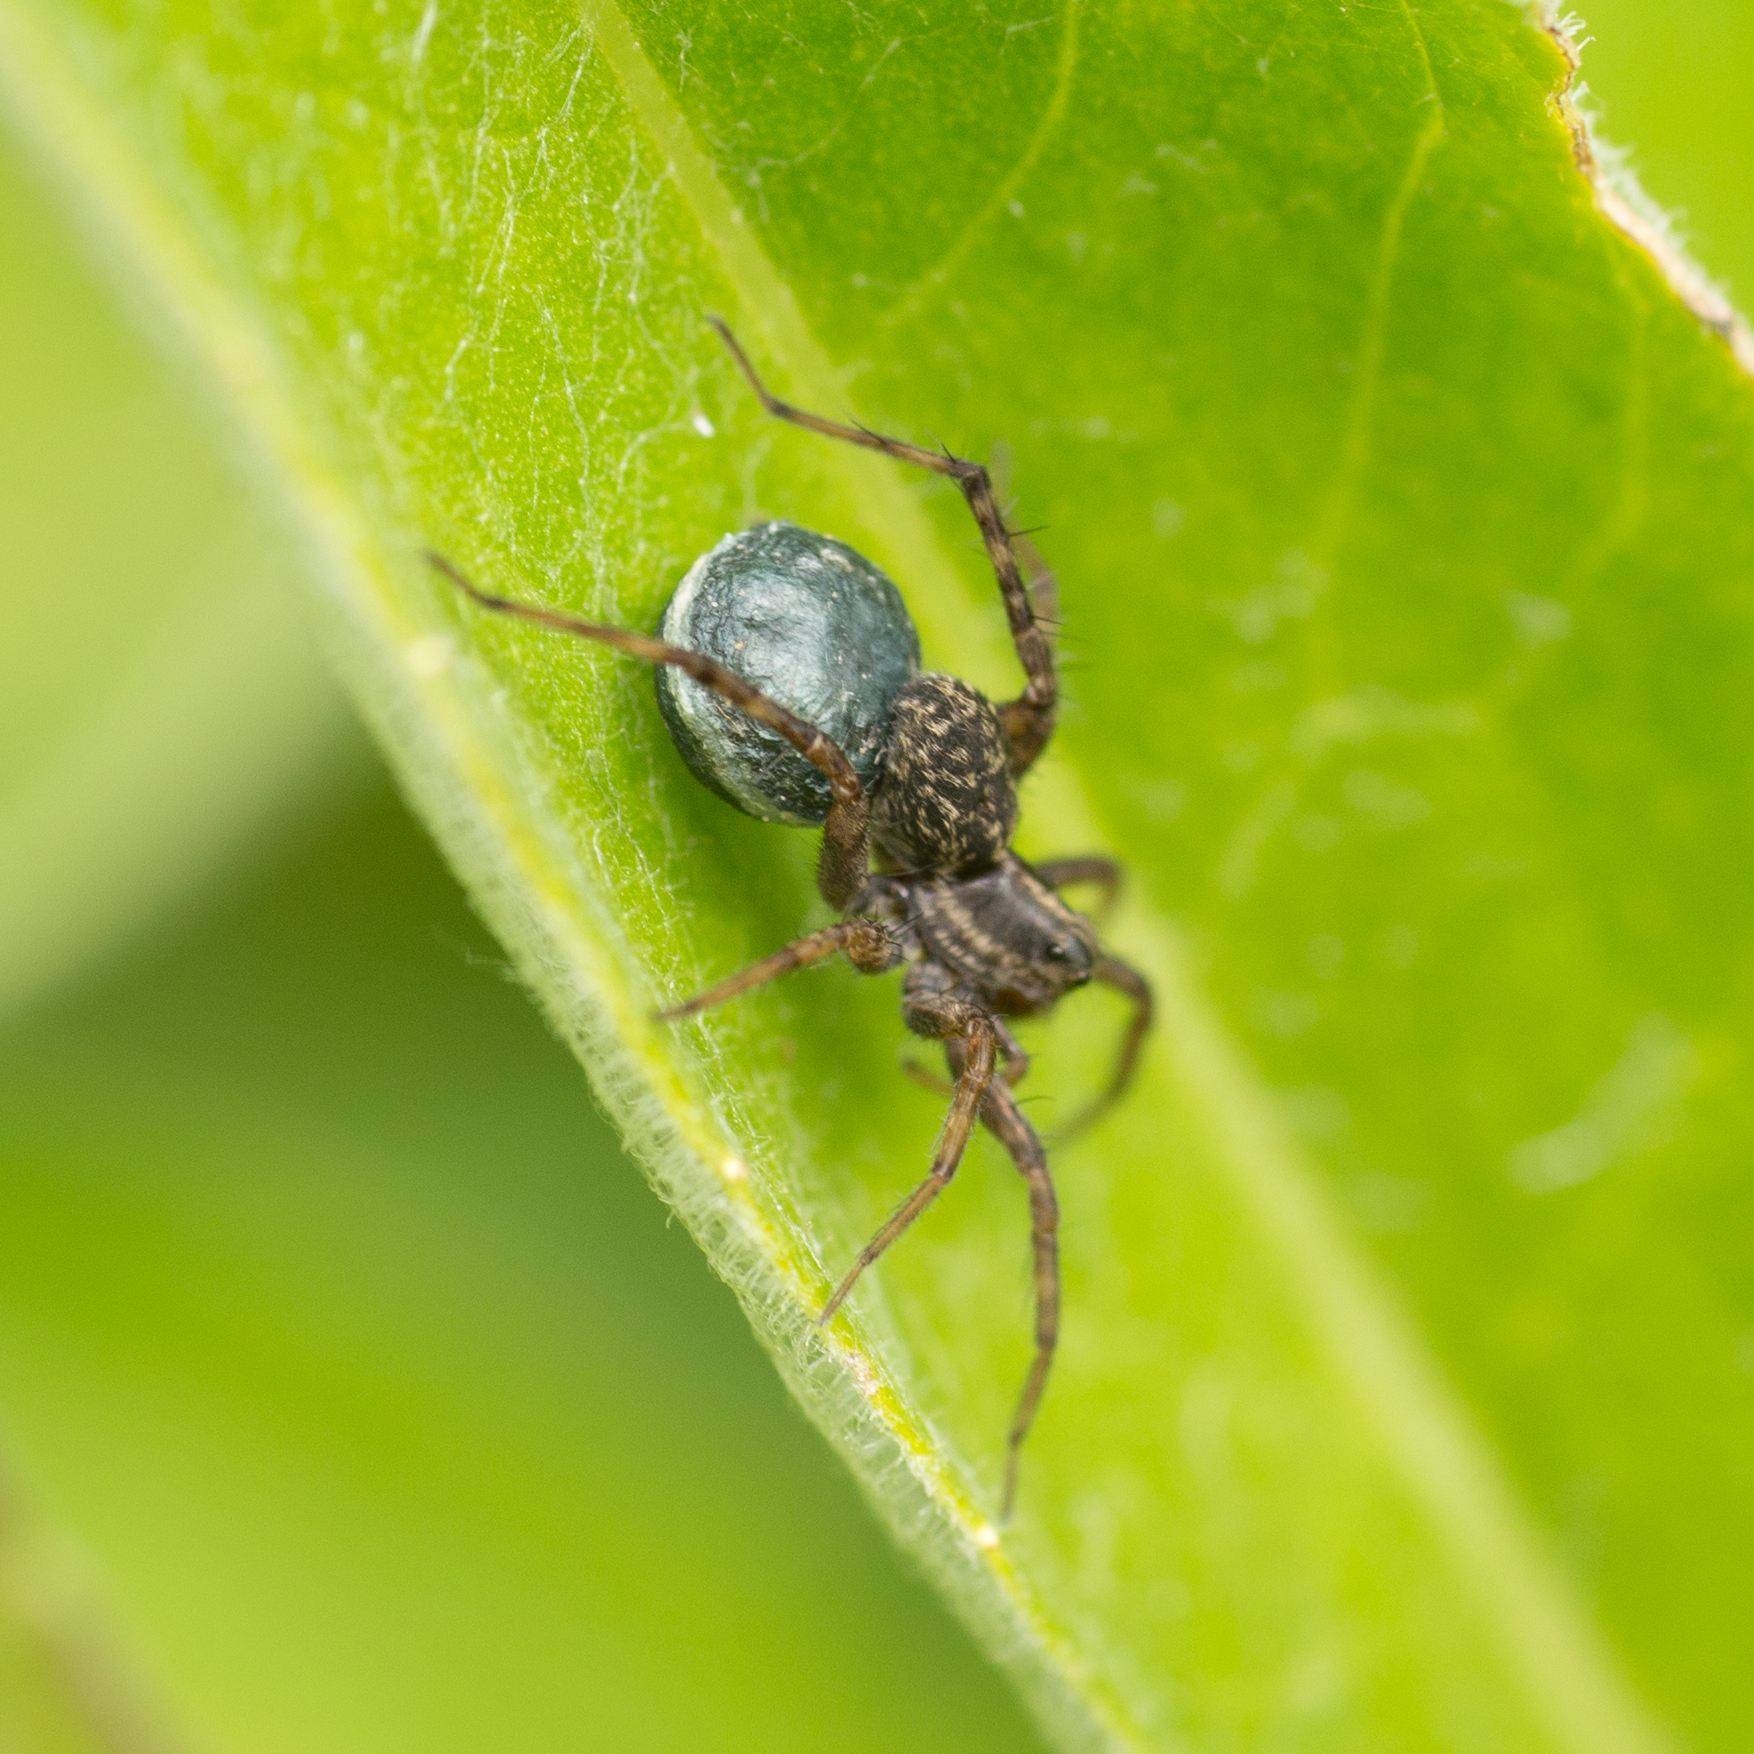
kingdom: Animalia
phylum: Arthropoda
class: Arachnida
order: Araneae
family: Lycosidae
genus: Pardosa
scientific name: Pardosa
